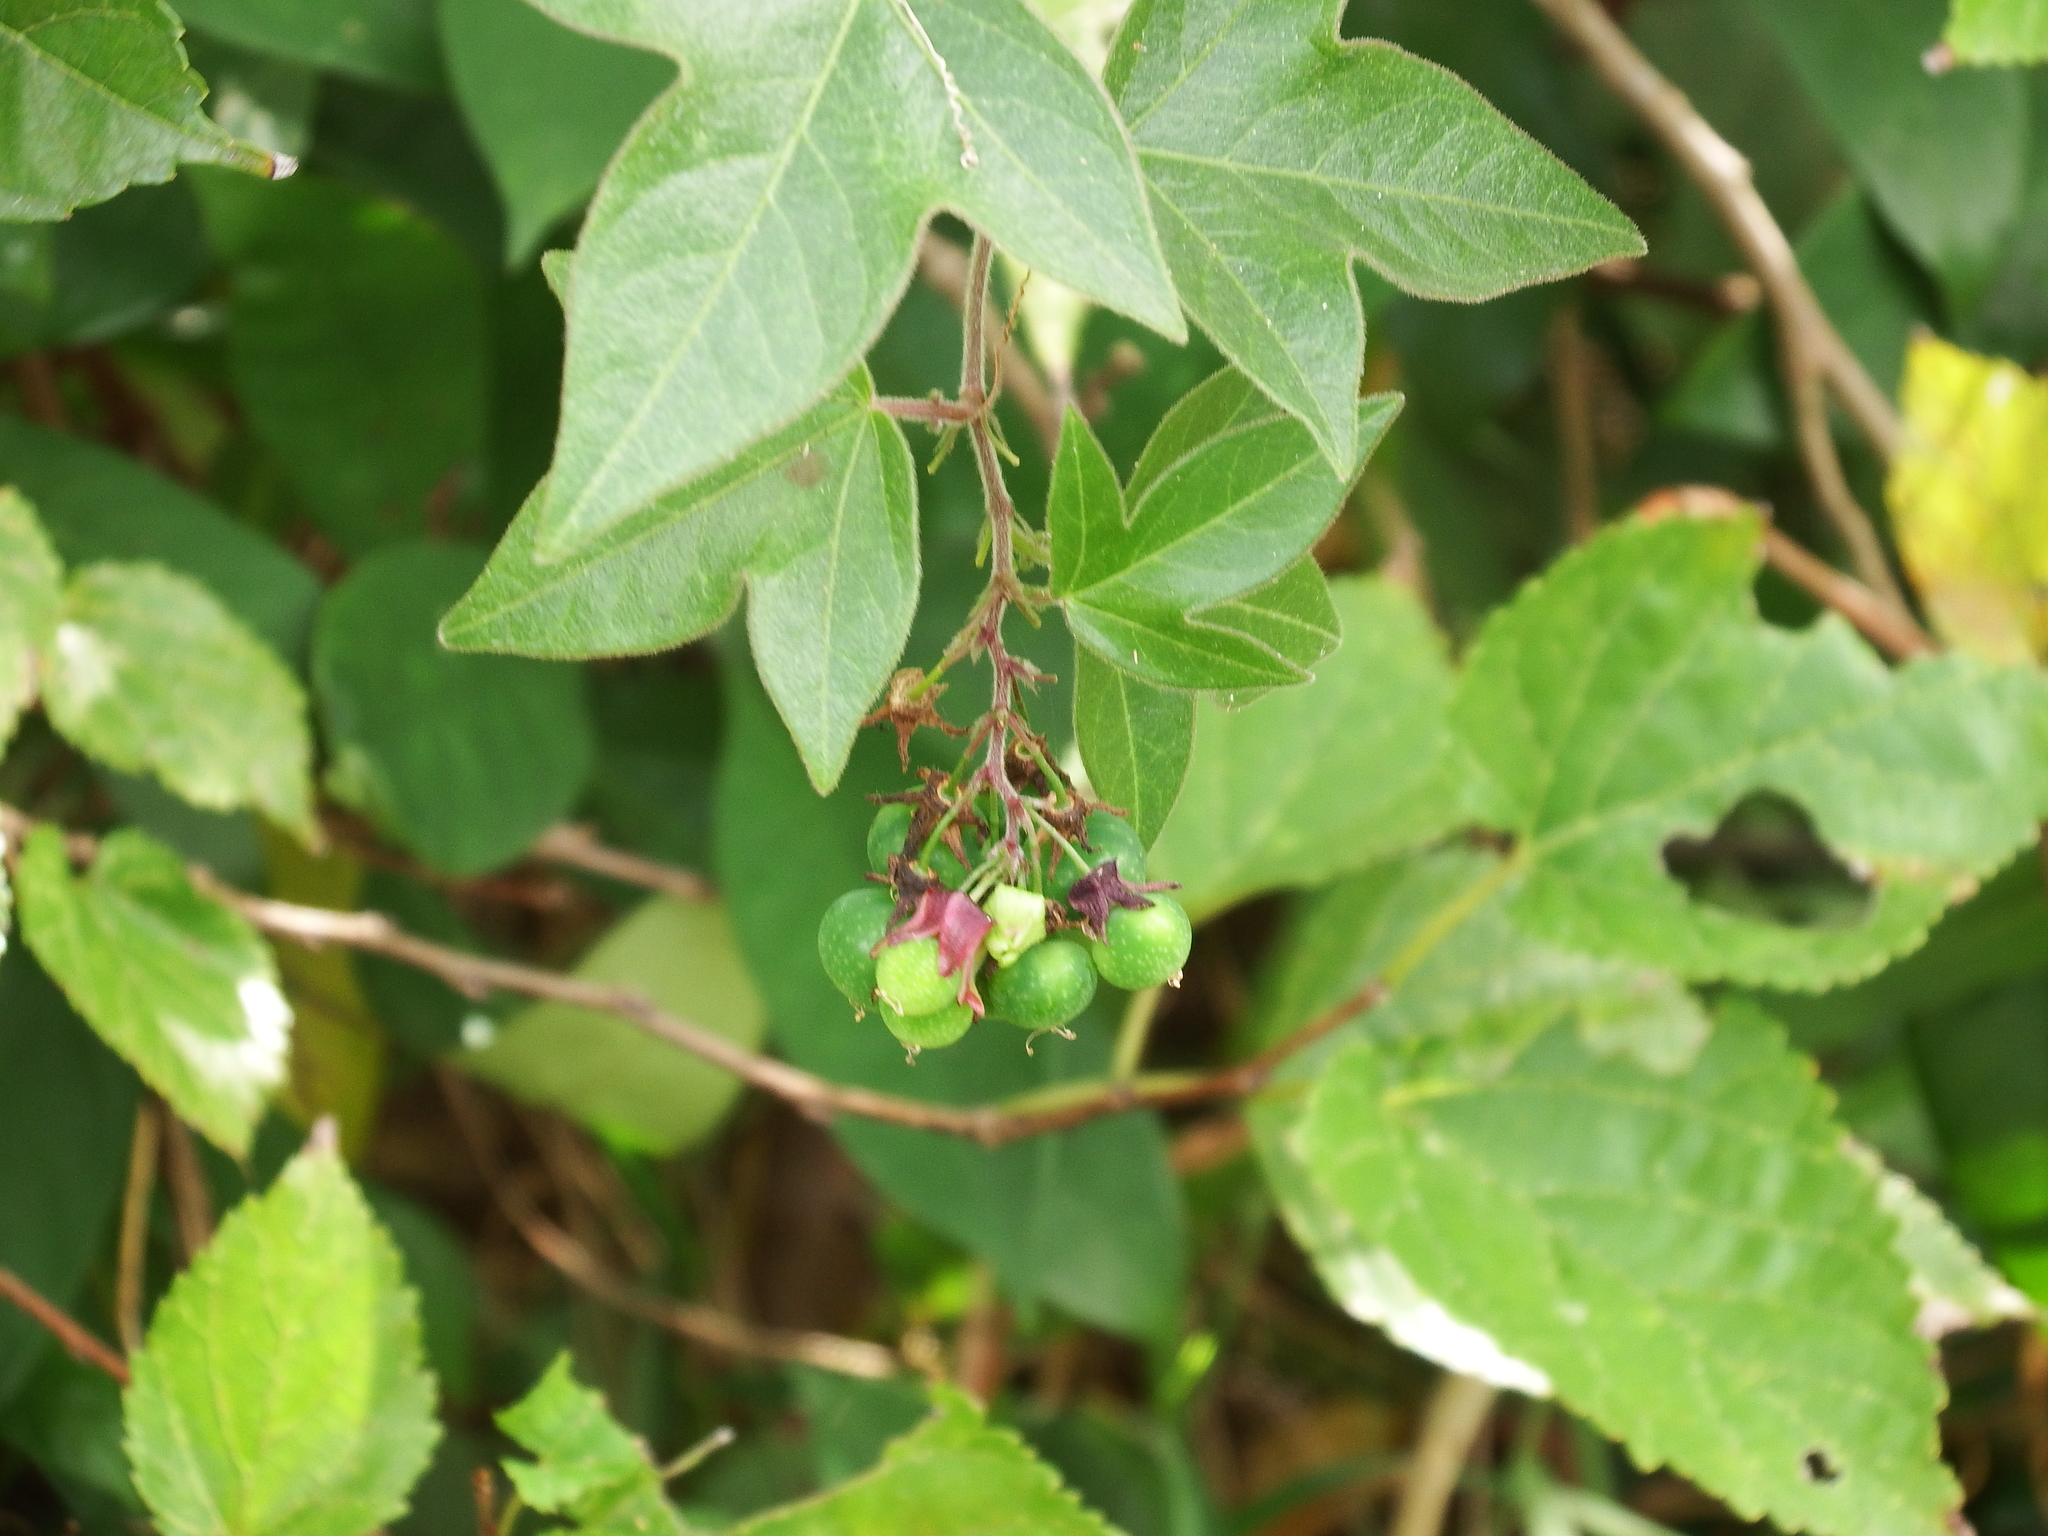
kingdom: Plantae
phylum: Tracheophyta
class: Magnoliopsida
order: Malpighiales
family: Passifloraceae
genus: Passiflora
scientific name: Passiflora suberosa
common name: Wild passionfruit
